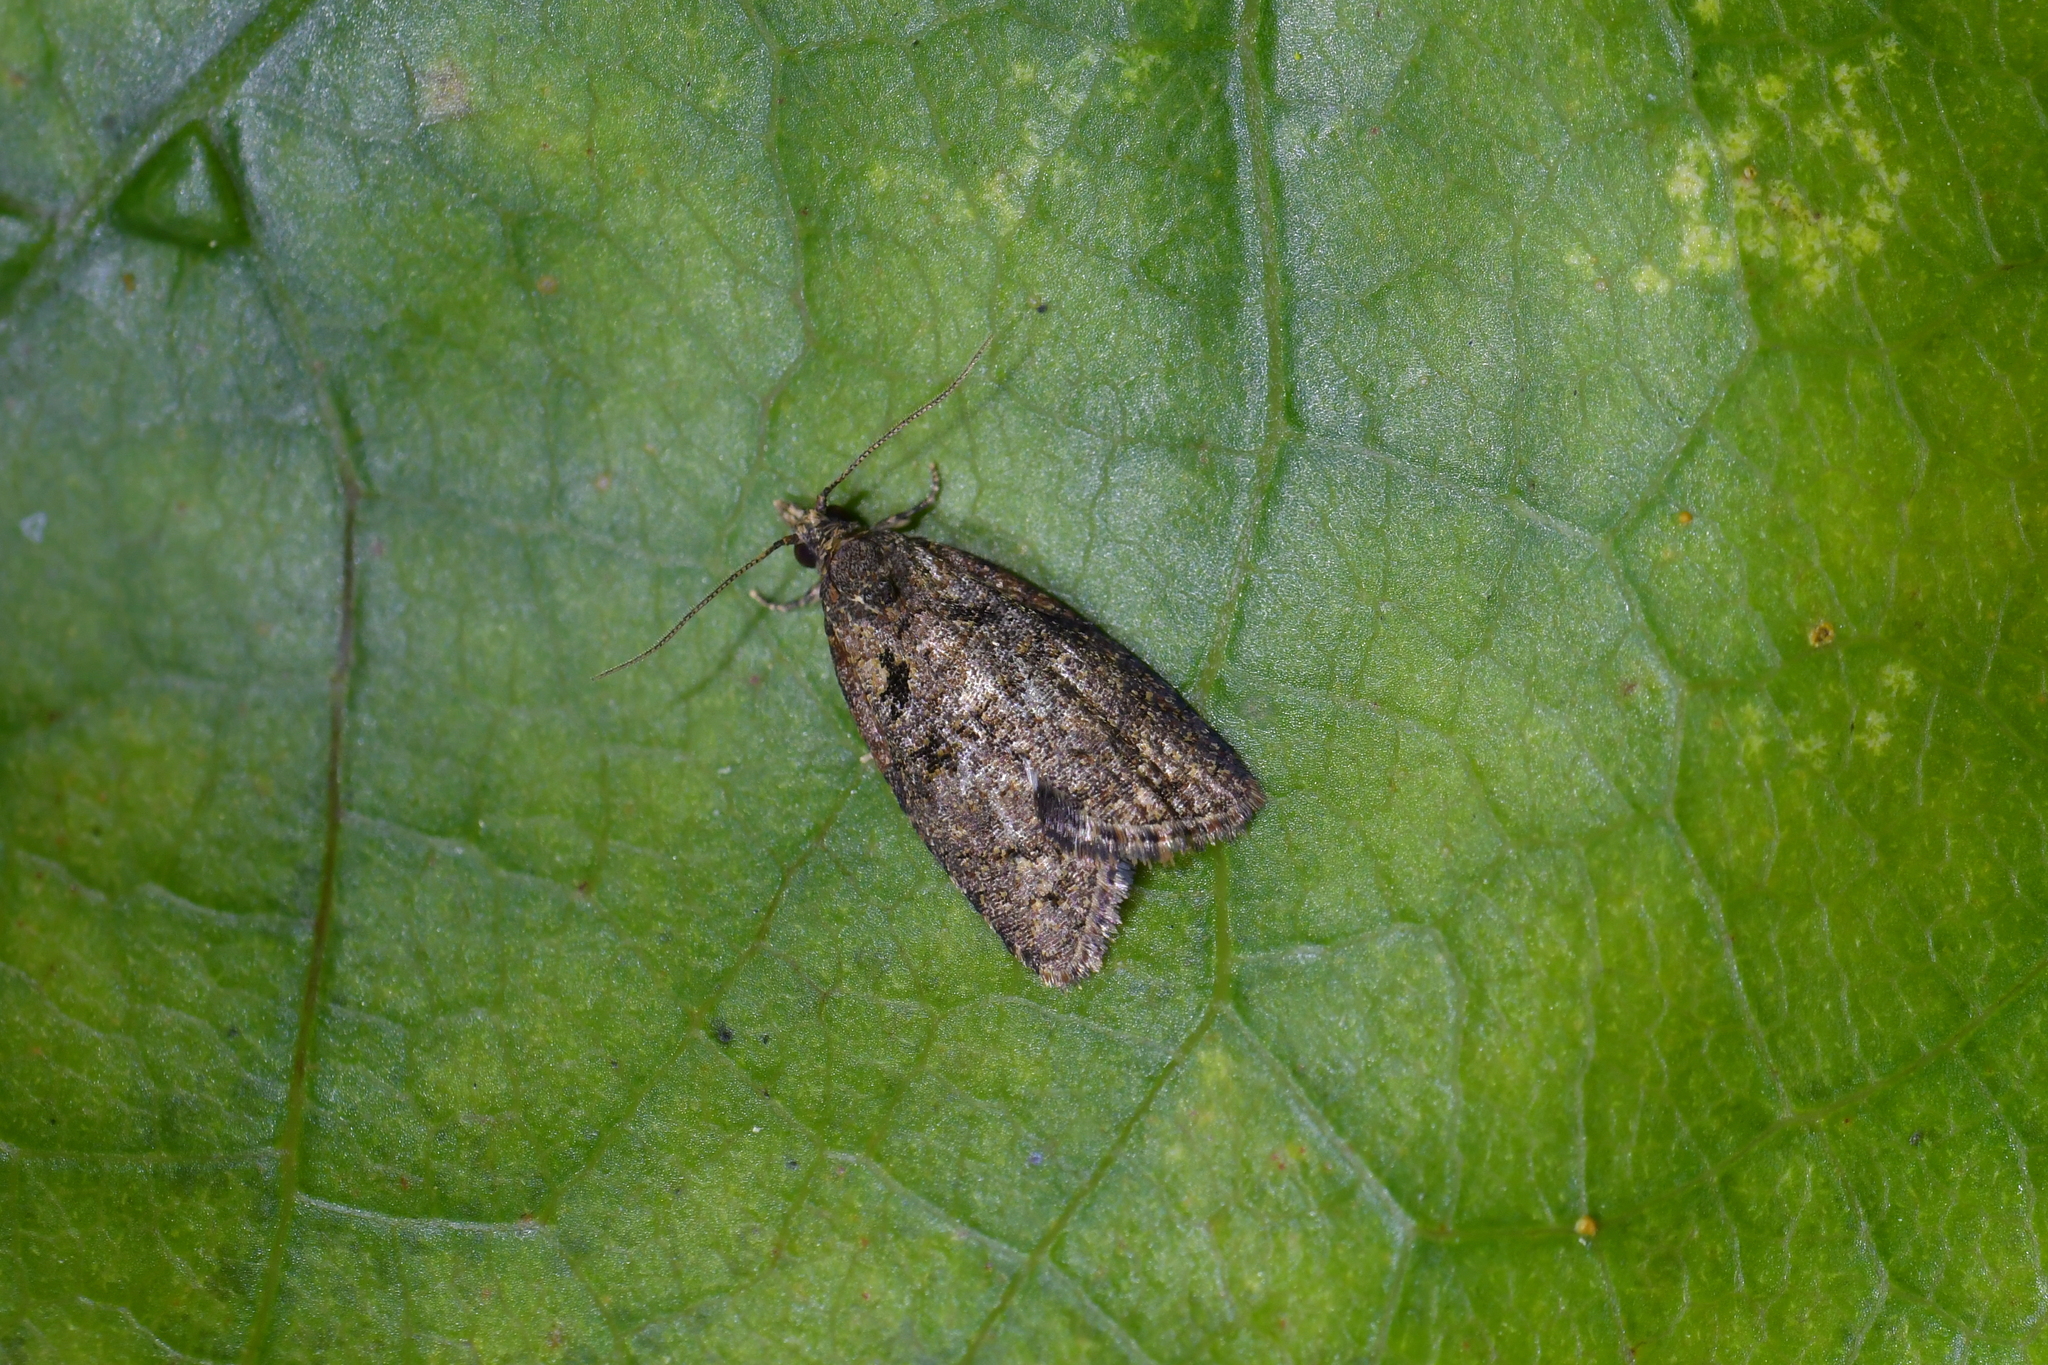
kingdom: Animalia
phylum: Arthropoda
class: Insecta
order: Lepidoptera
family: Tortricidae
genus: Capua
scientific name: Capua intractana
